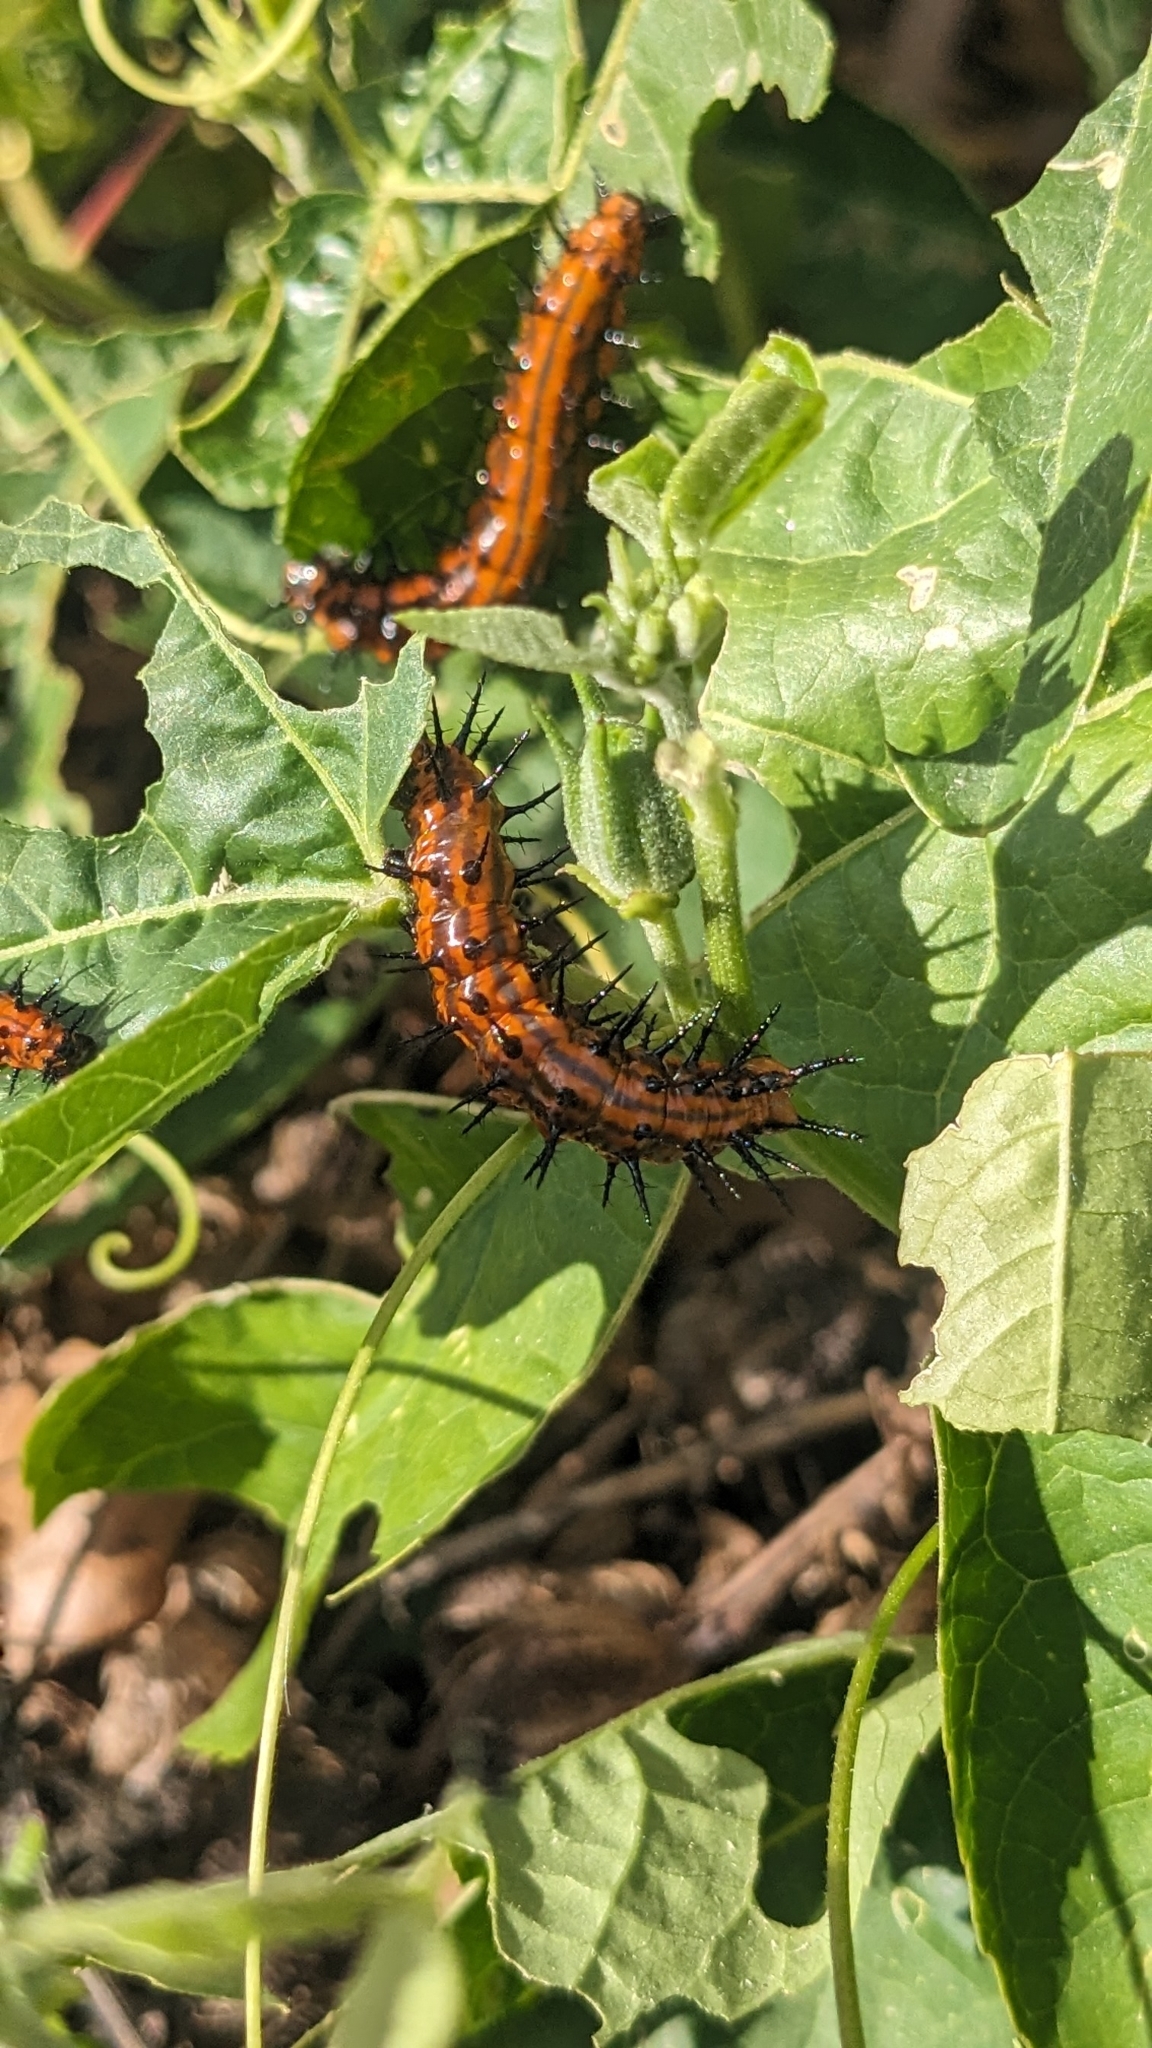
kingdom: Animalia
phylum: Arthropoda
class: Insecta
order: Lepidoptera
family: Nymphalidae
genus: Dione
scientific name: Dione vanillae
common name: Gulf fritillary
